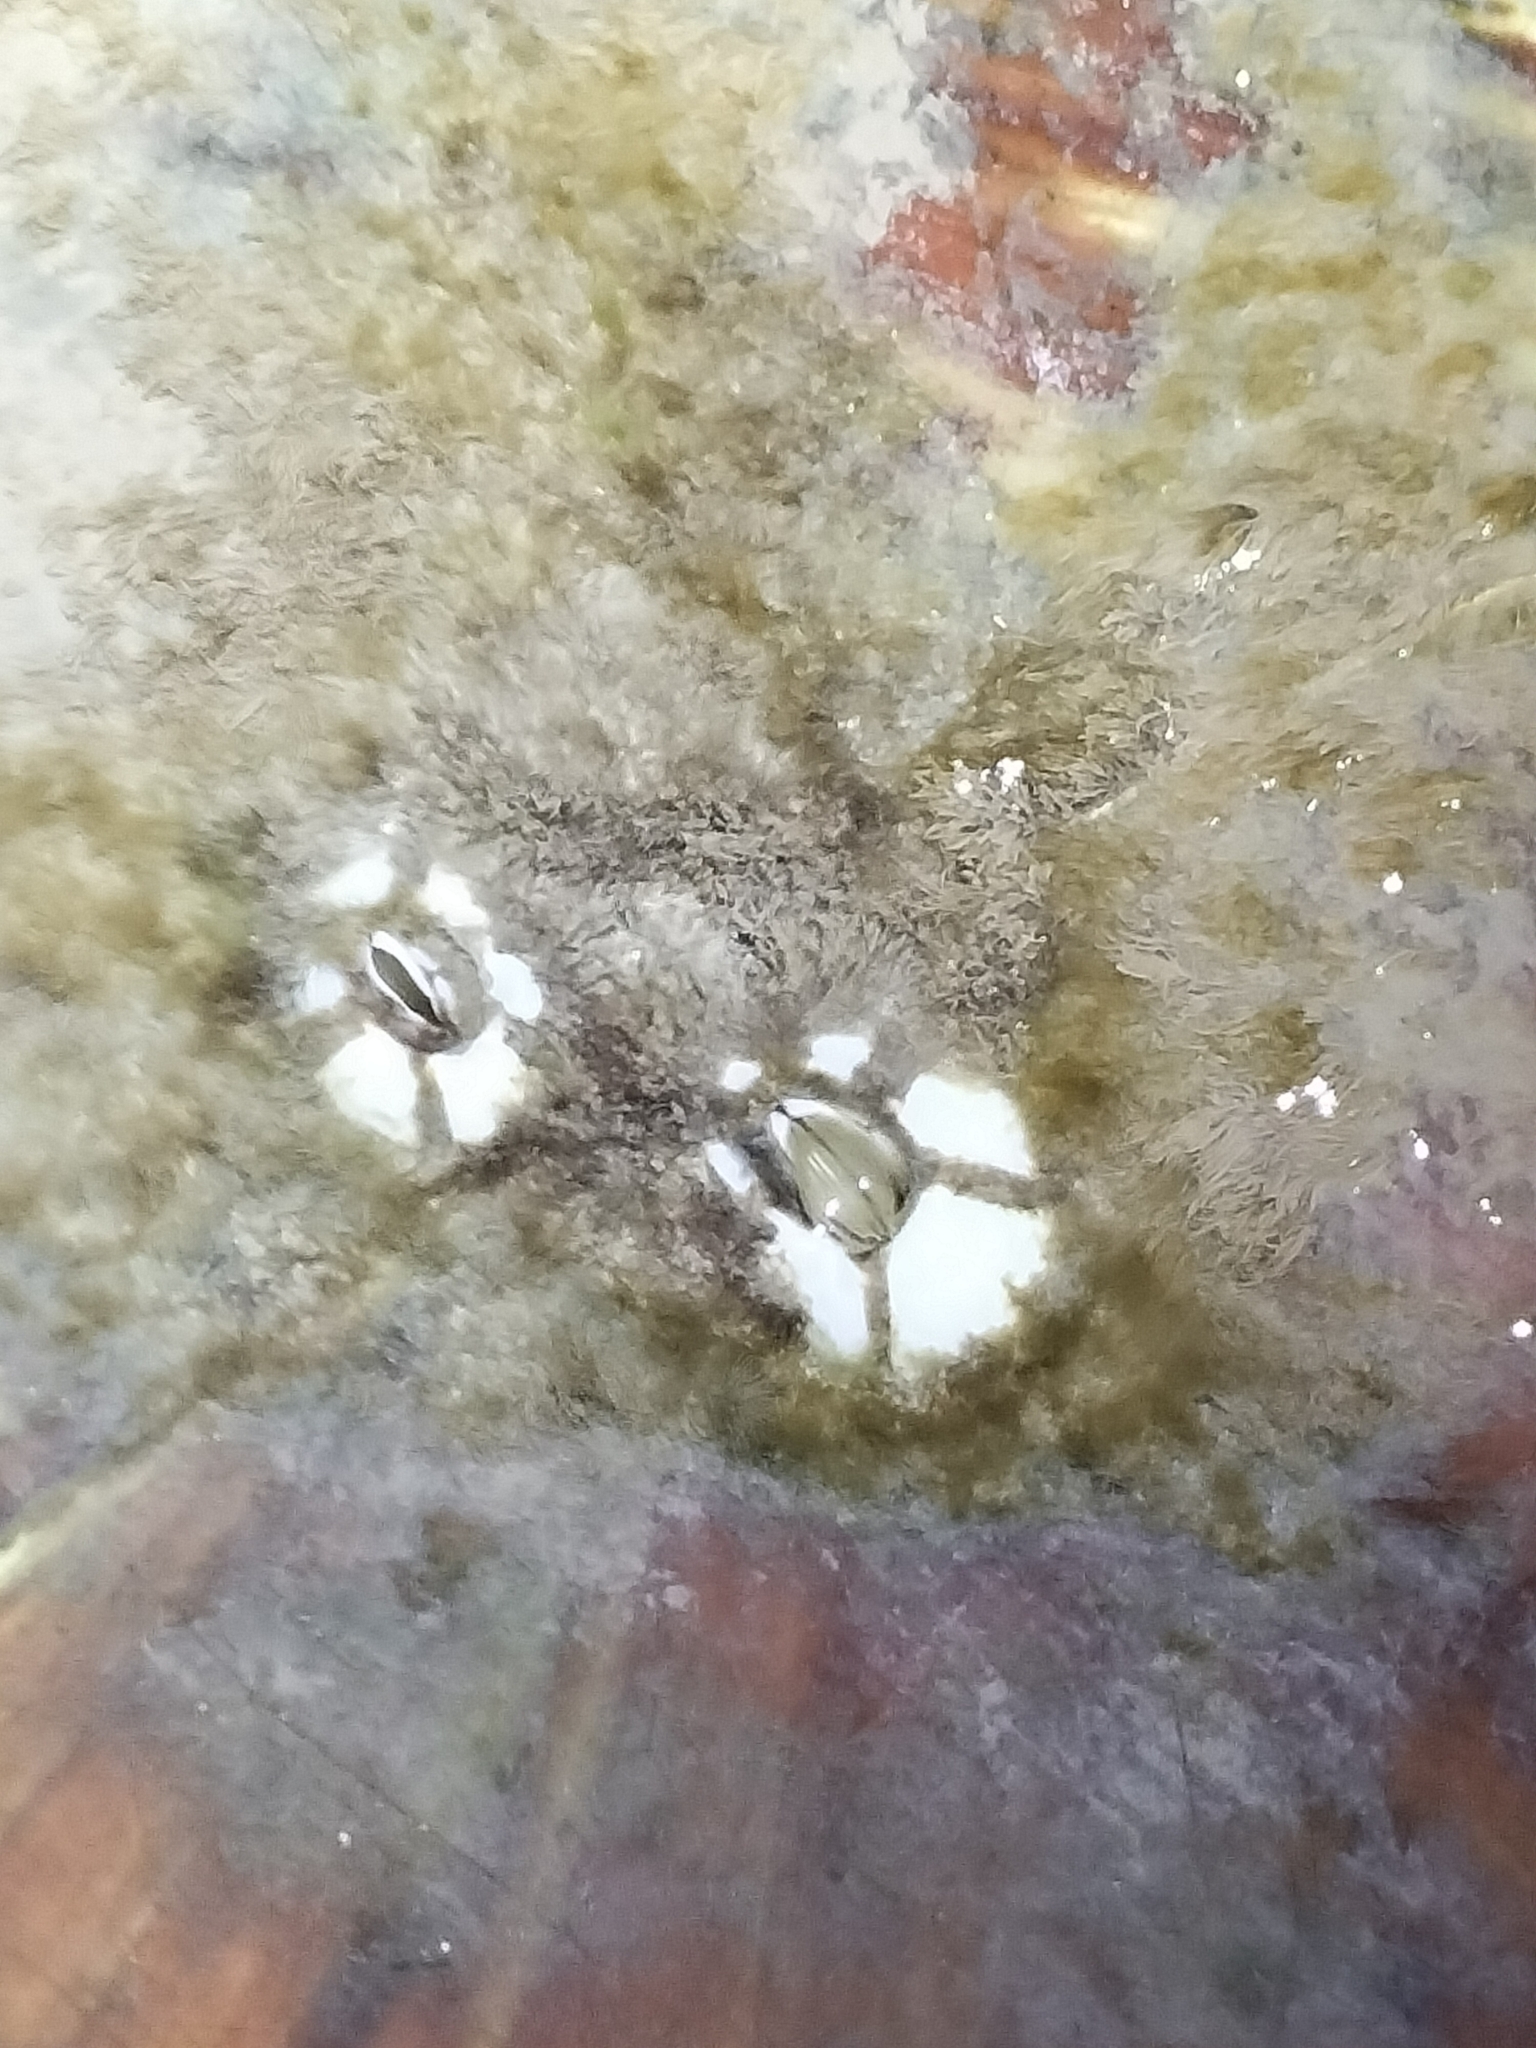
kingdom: Animalia
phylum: Arthropoda
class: Maxillopoda
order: Sessilia
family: Chelonibiidae
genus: Chelonibia
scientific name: Chelonibia testudinaria
